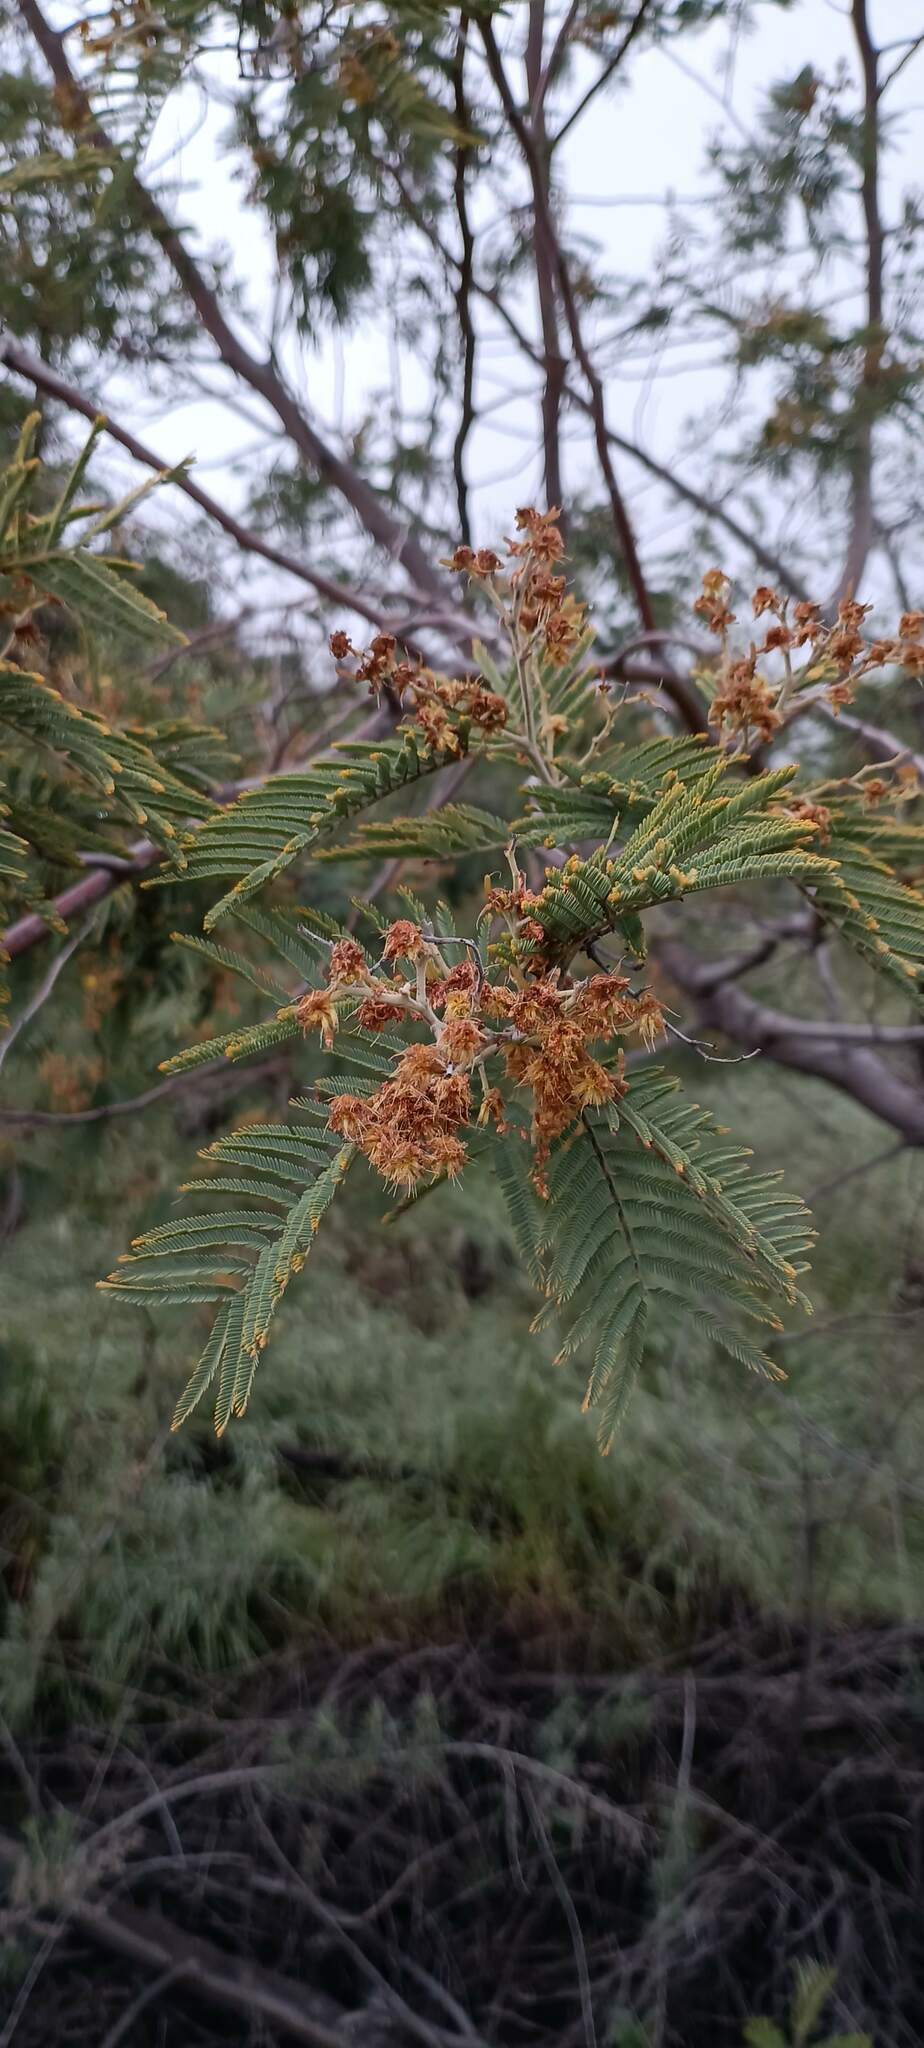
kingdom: Plantae
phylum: Tracheophyta
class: Magnoliopsida
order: Fabales
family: Fabaceae
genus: Acacia
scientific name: Acacia dealbata
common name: Silver wattle
